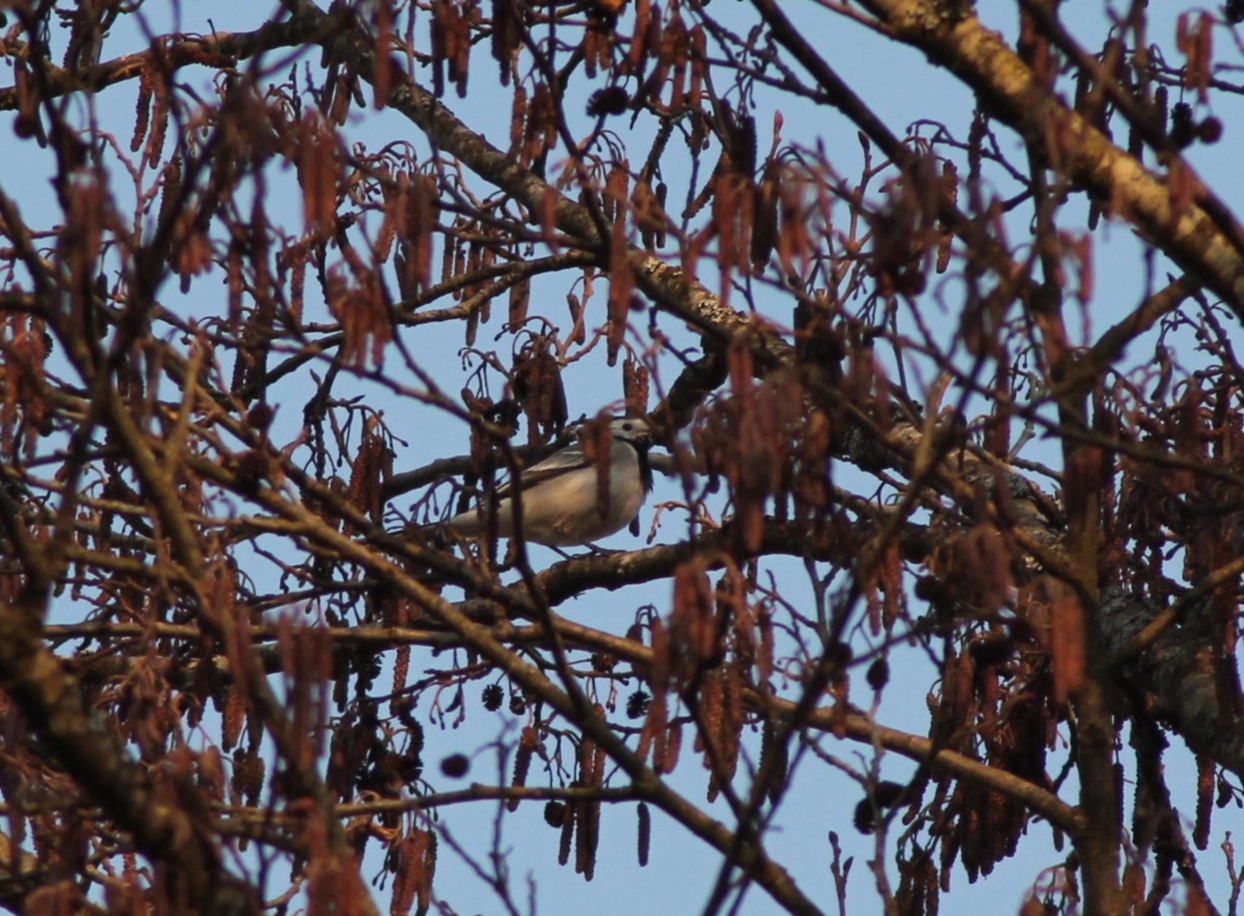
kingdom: Animalia
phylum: Chordata
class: Aves
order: Passeriformes
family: Motacillidae
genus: Motacilla
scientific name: Motacilla alba
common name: White wagtail
